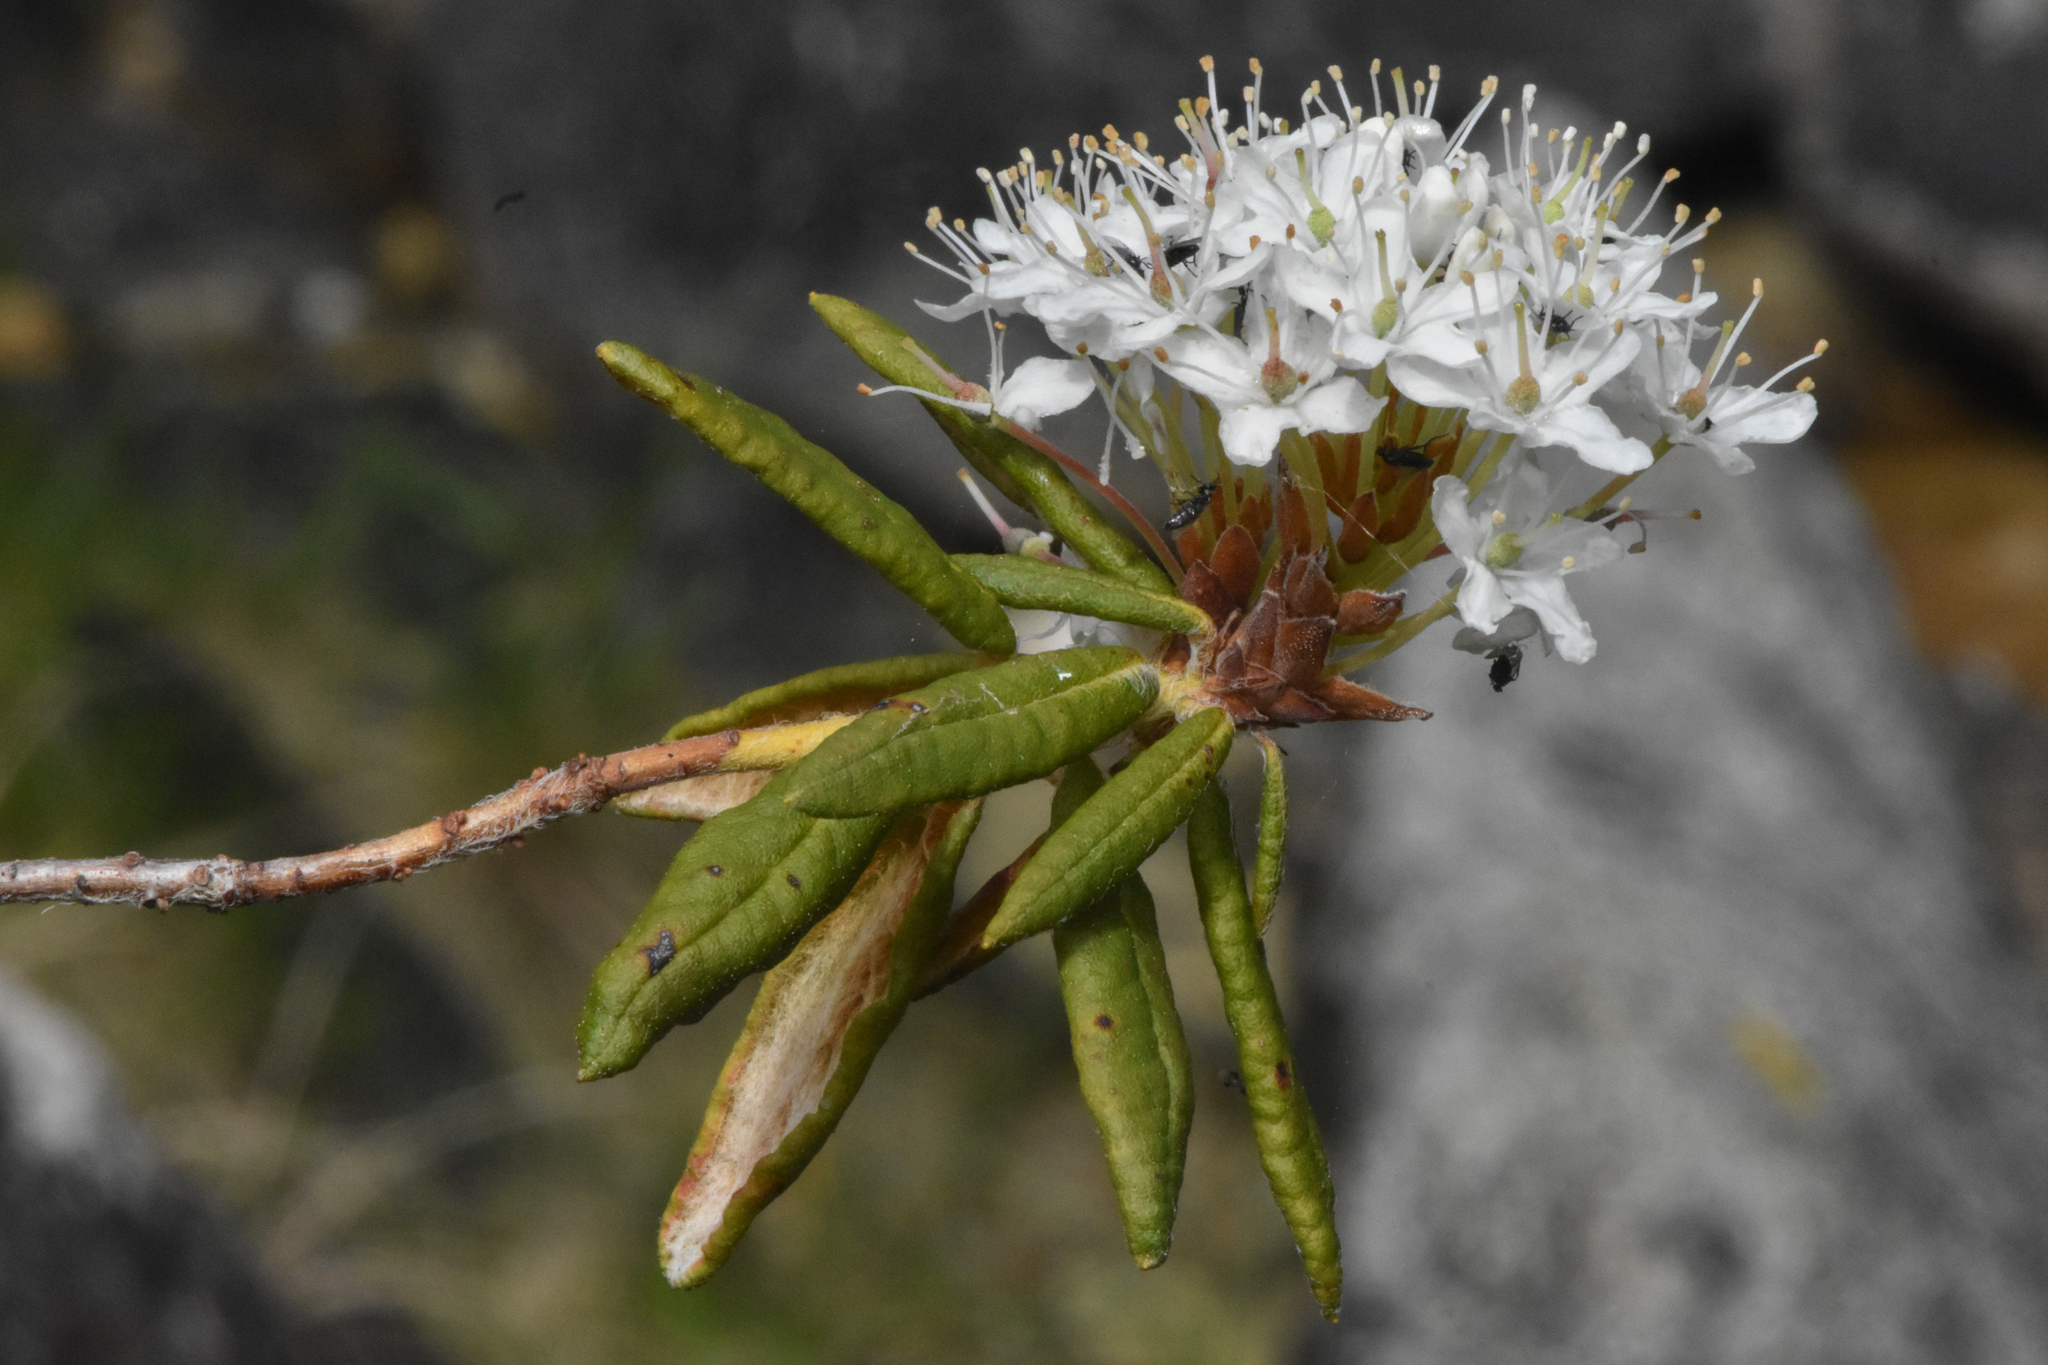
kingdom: Plantae
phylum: Tracheophyta
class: Magnoliopsida
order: Ericales
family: Ericaceae
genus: Rhododendron
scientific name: Rhododendron groenlandicum
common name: Bog labrador tea
